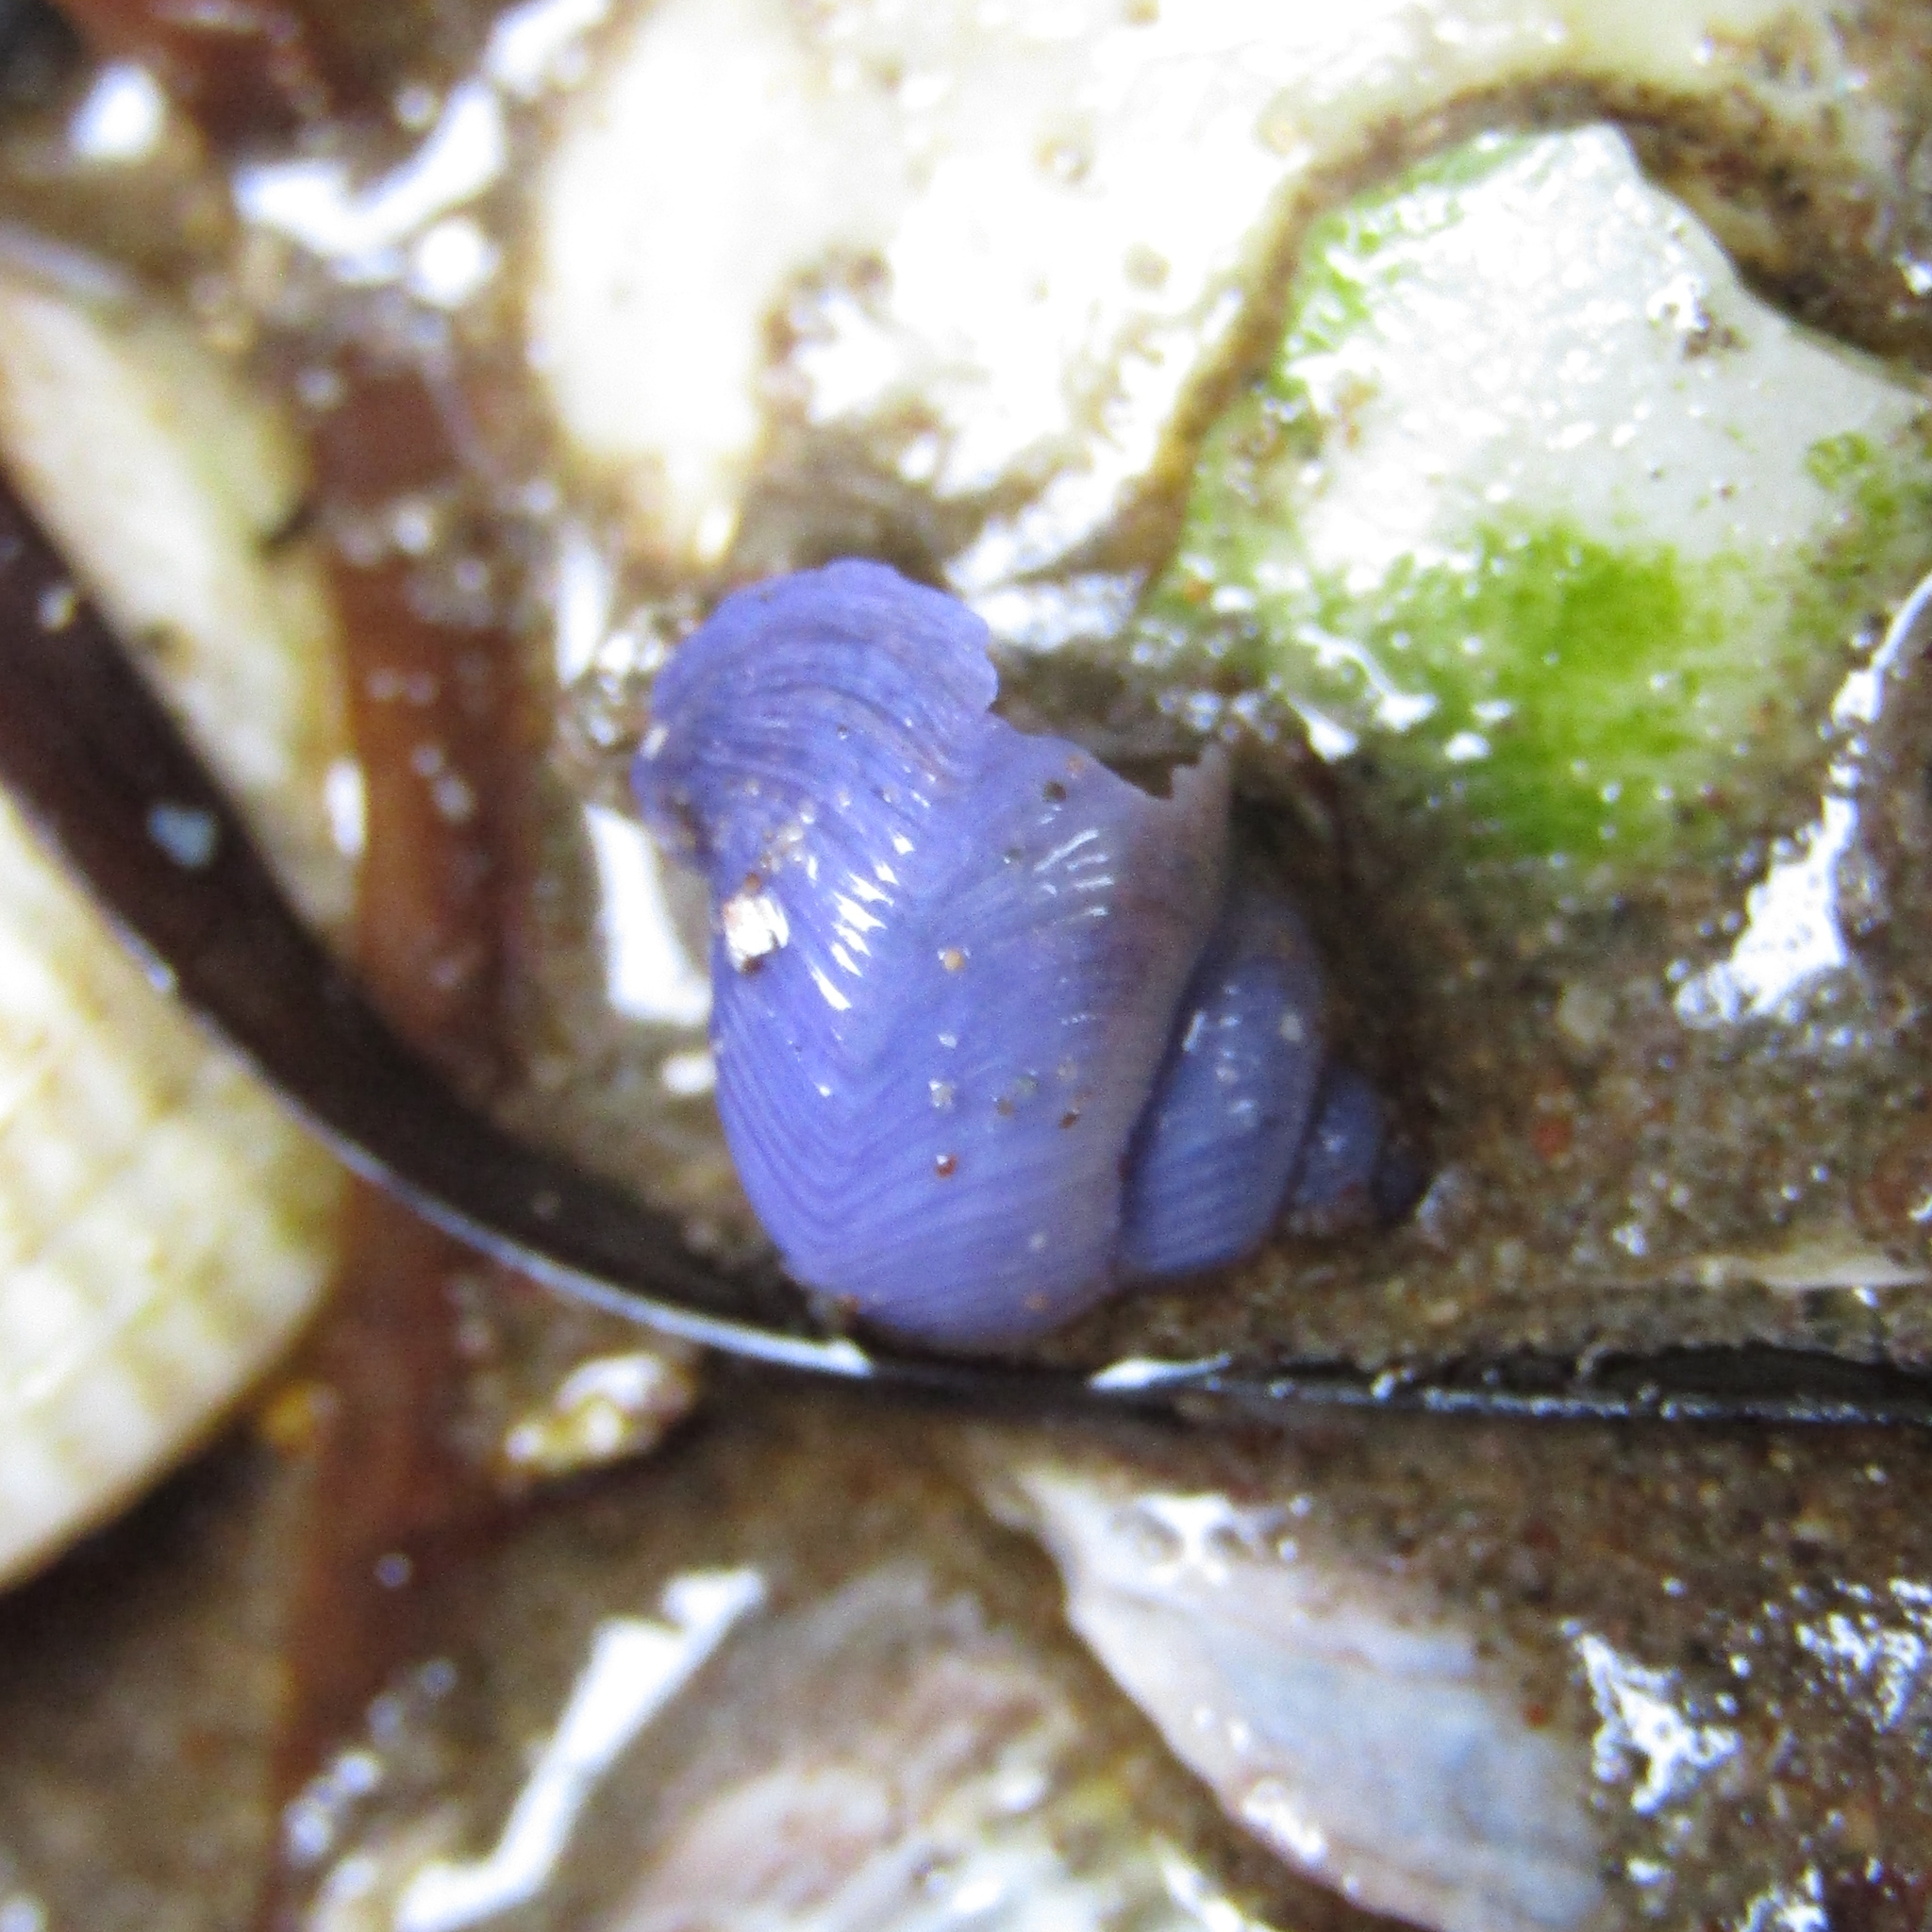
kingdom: Animalia
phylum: Mollusca
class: Gastropoda
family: Epitoniidae
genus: Janthina
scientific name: Janthina exigua
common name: Dwarf janthina
